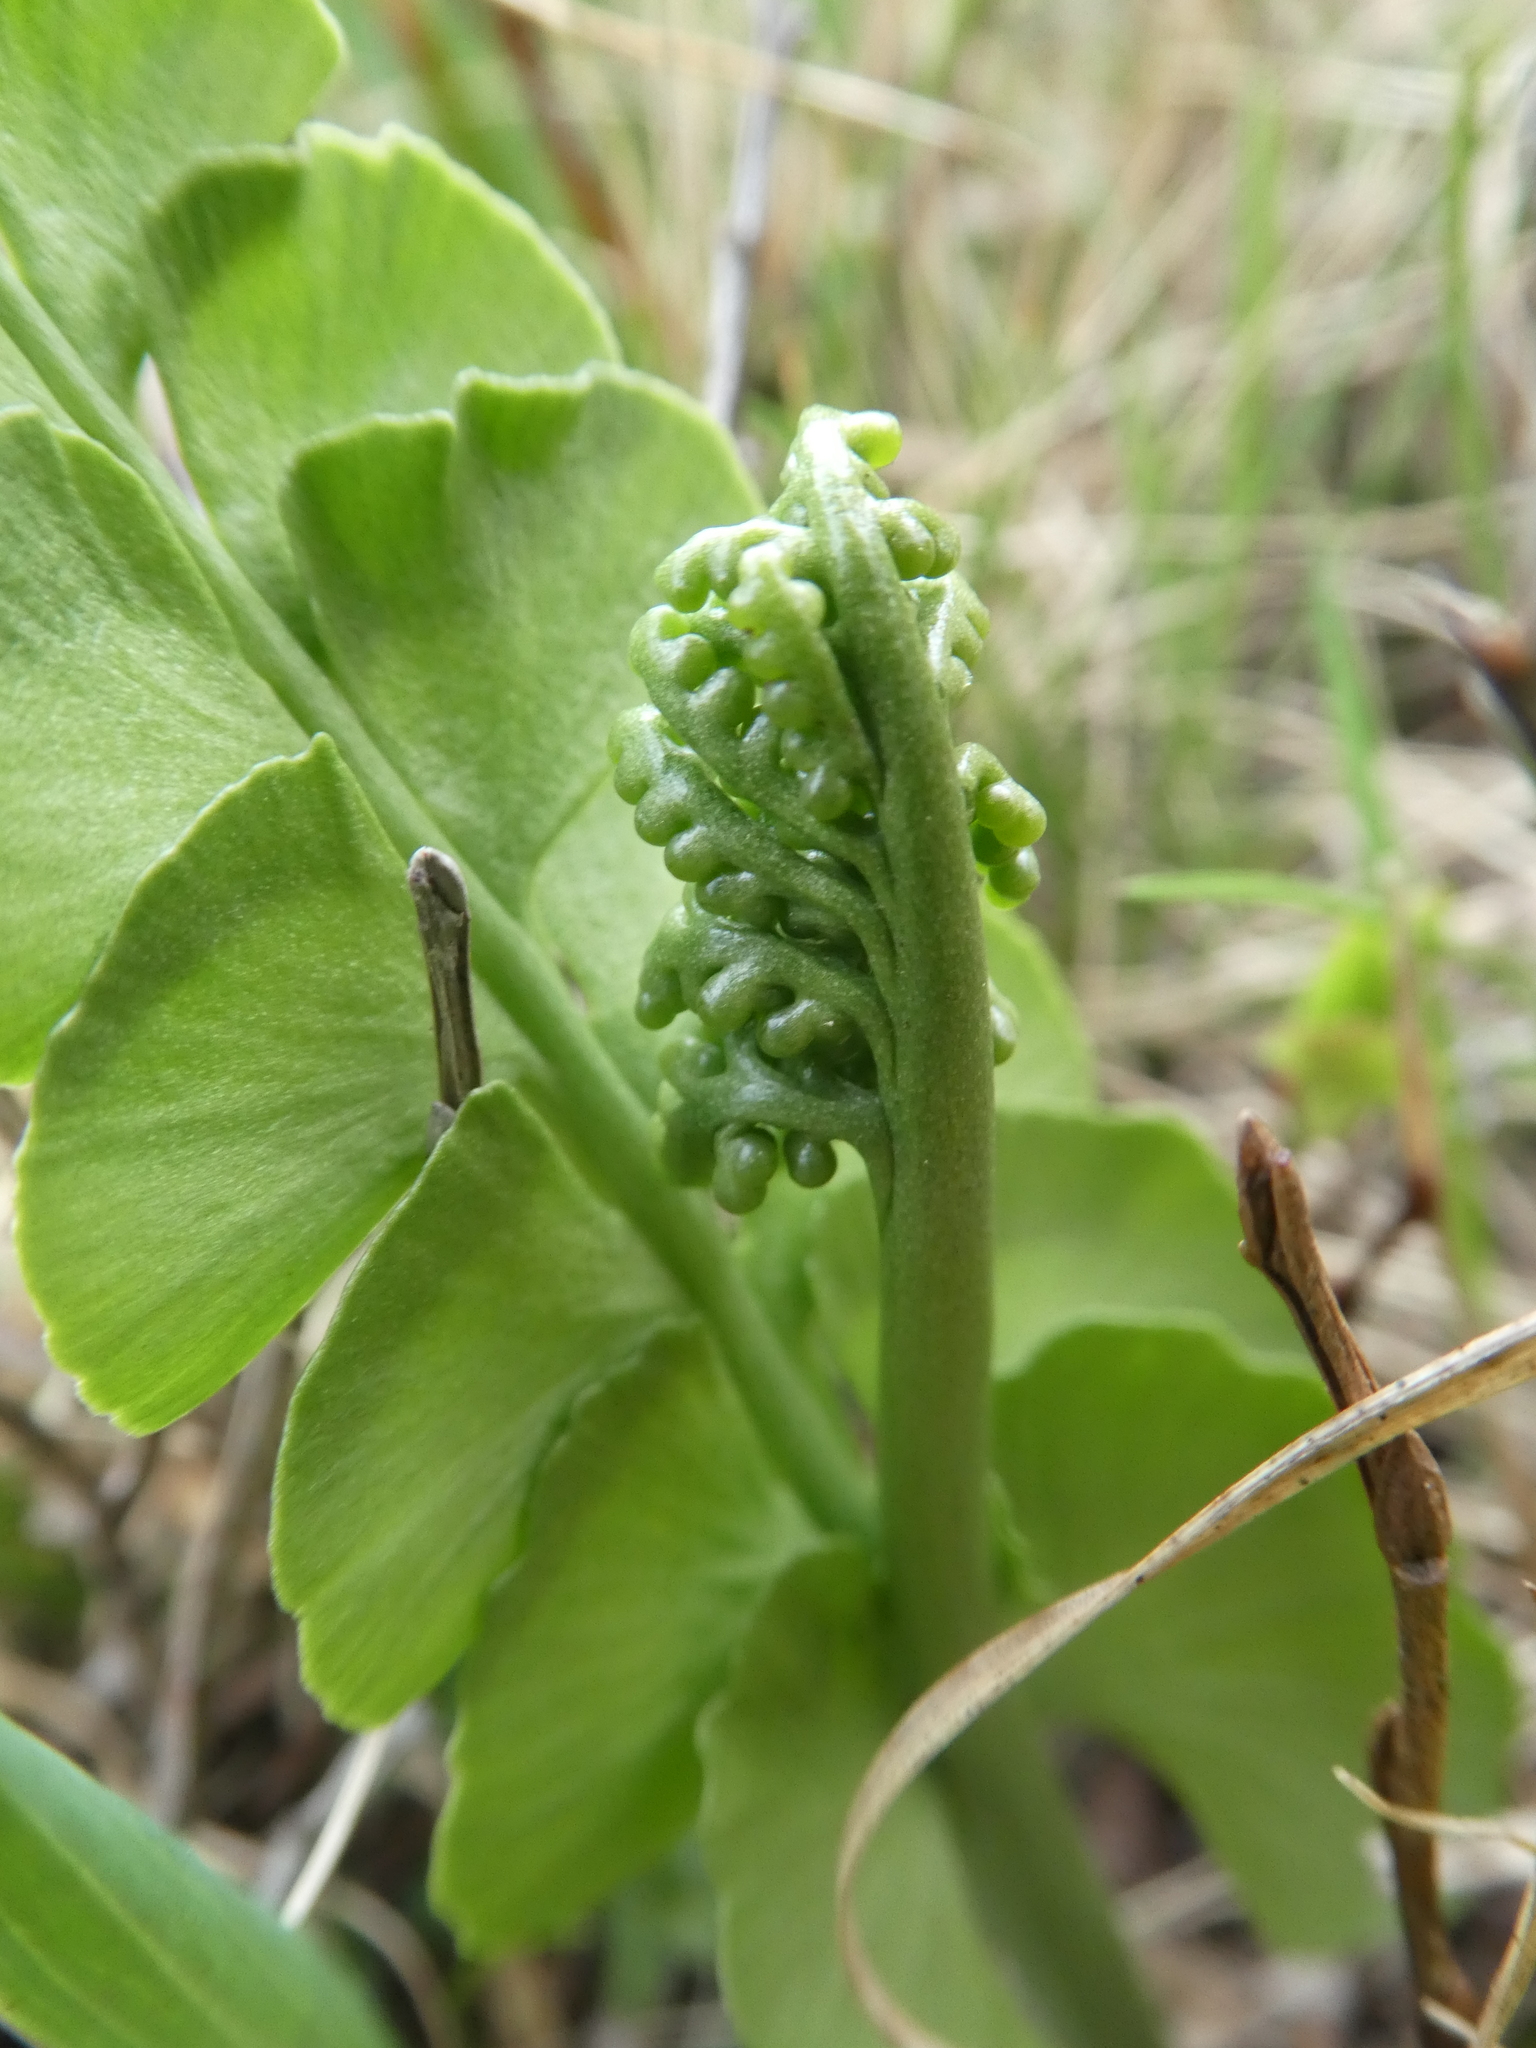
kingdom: Plantae
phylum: Tracheophyta
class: Polypodiopsida
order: Ophioglossales
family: Ophioglossaceae
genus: Botrychium
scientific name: Botrychium lunaria
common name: Moonwort
